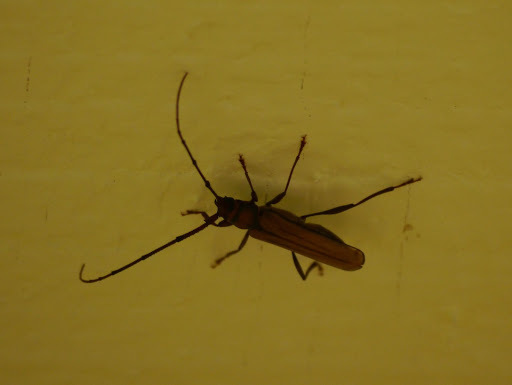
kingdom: Animalia
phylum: Arthropoda
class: Insecta
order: Coleoptera
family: Cerambycidae
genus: Xystrocera
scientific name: Xystrocera globosa
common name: Peach-tree longhorn
